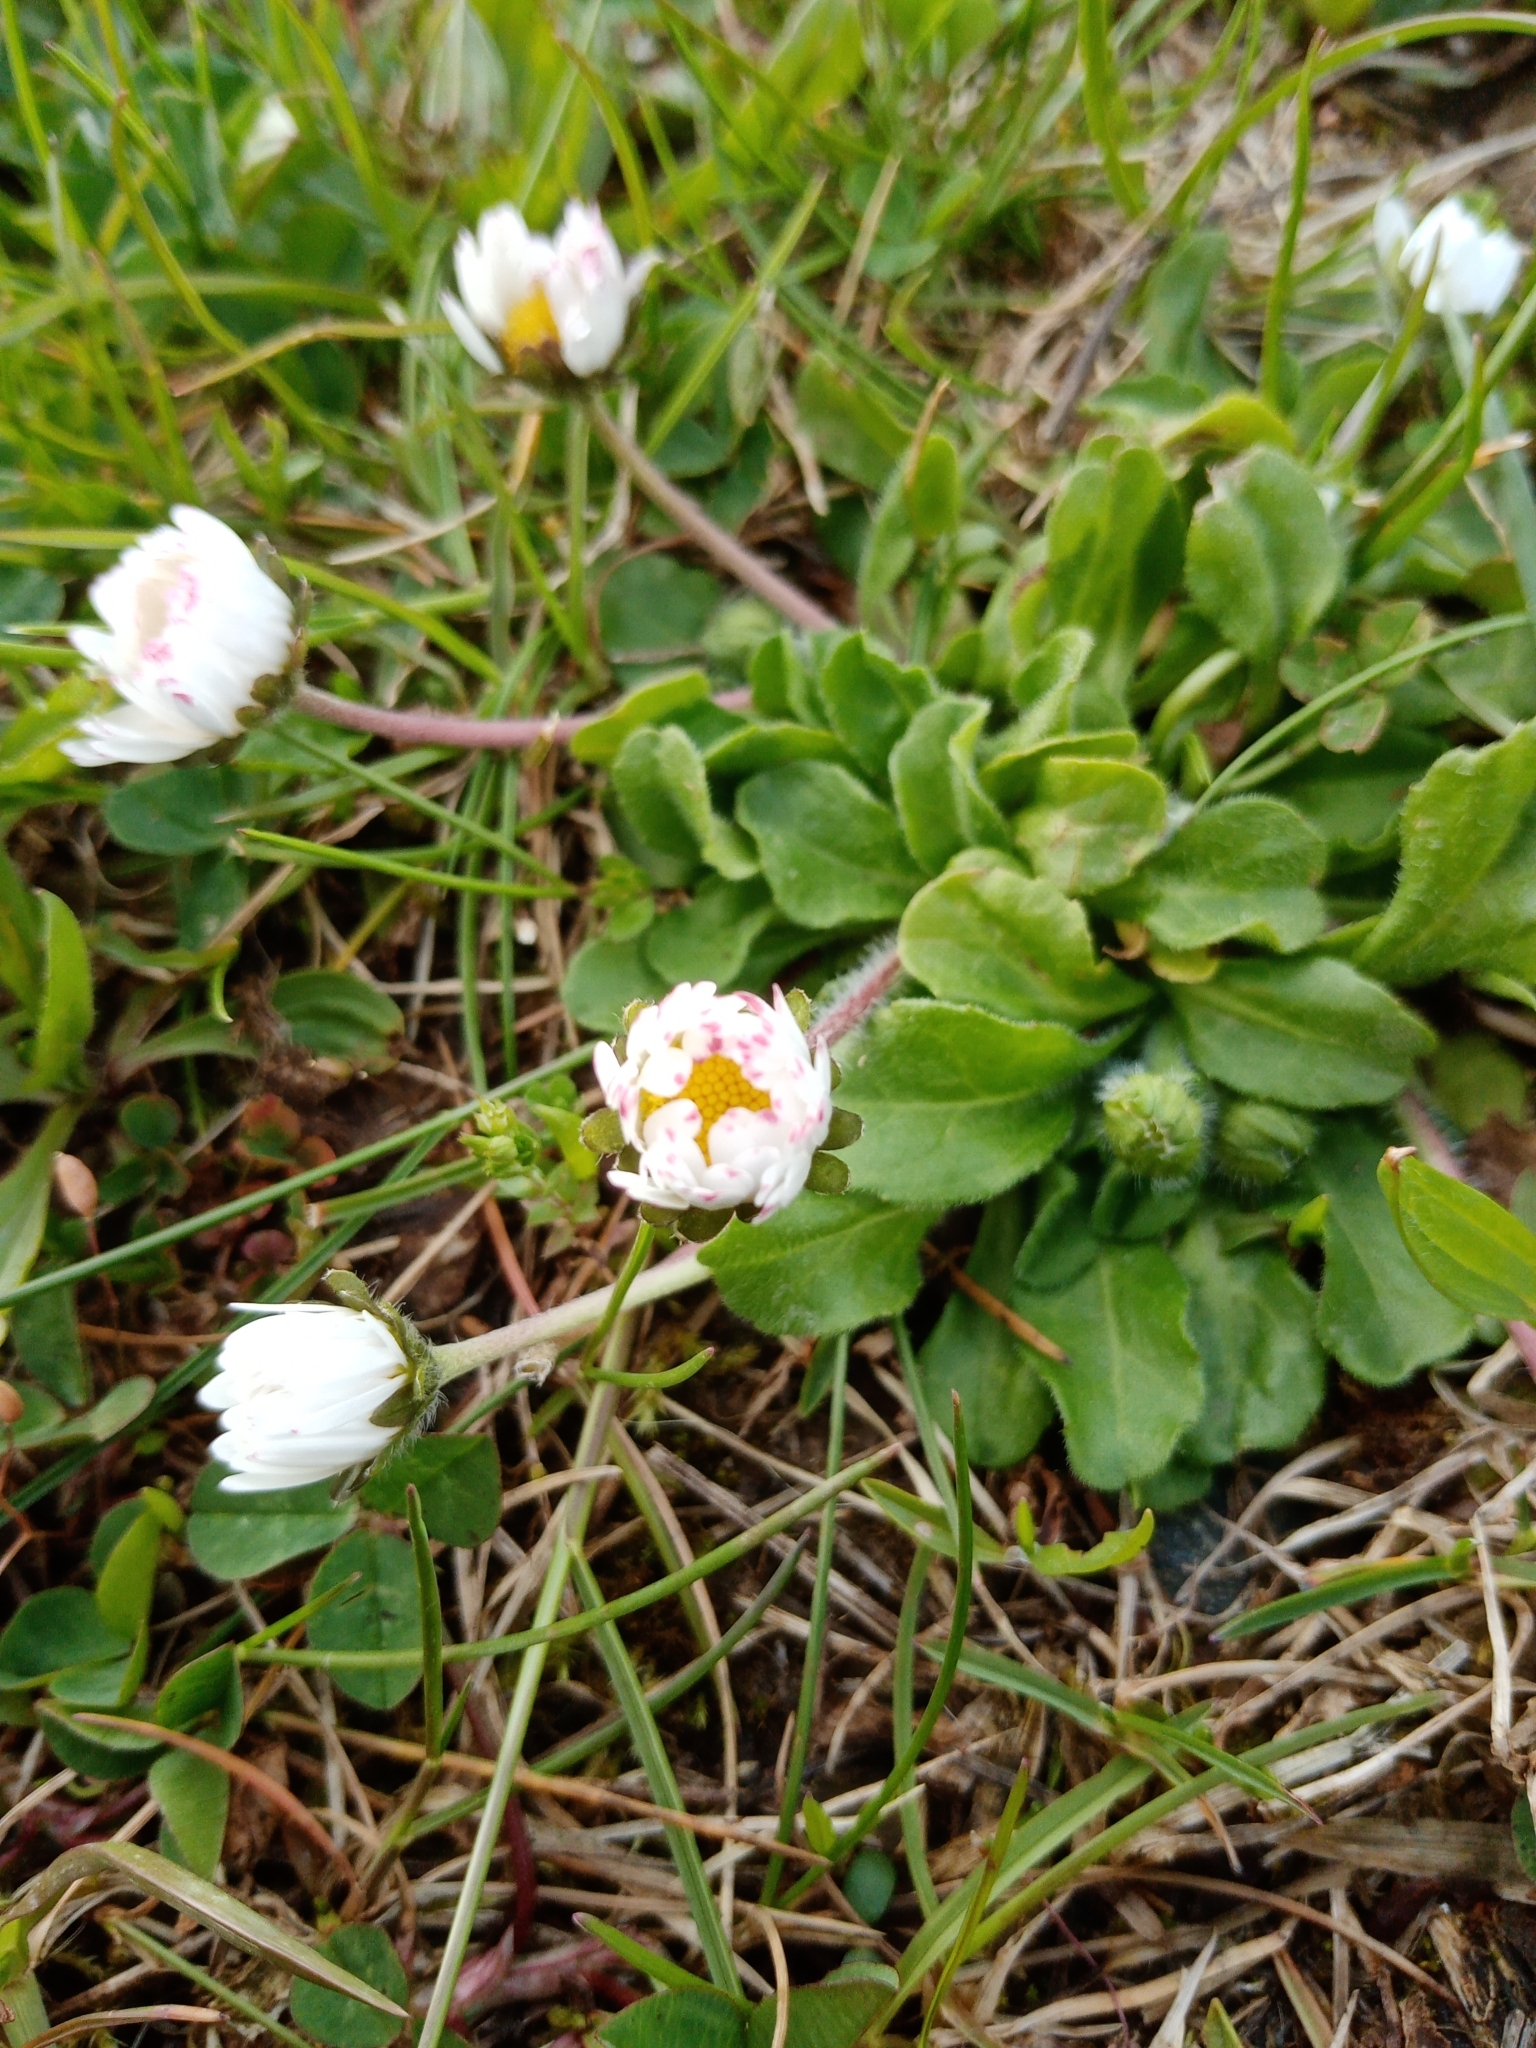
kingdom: Plantae
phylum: Tracheophyta
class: Magnoliopsida
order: Asterales
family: Asteraceae
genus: Bellis
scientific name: Bellis perennis
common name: Lawndaisy
